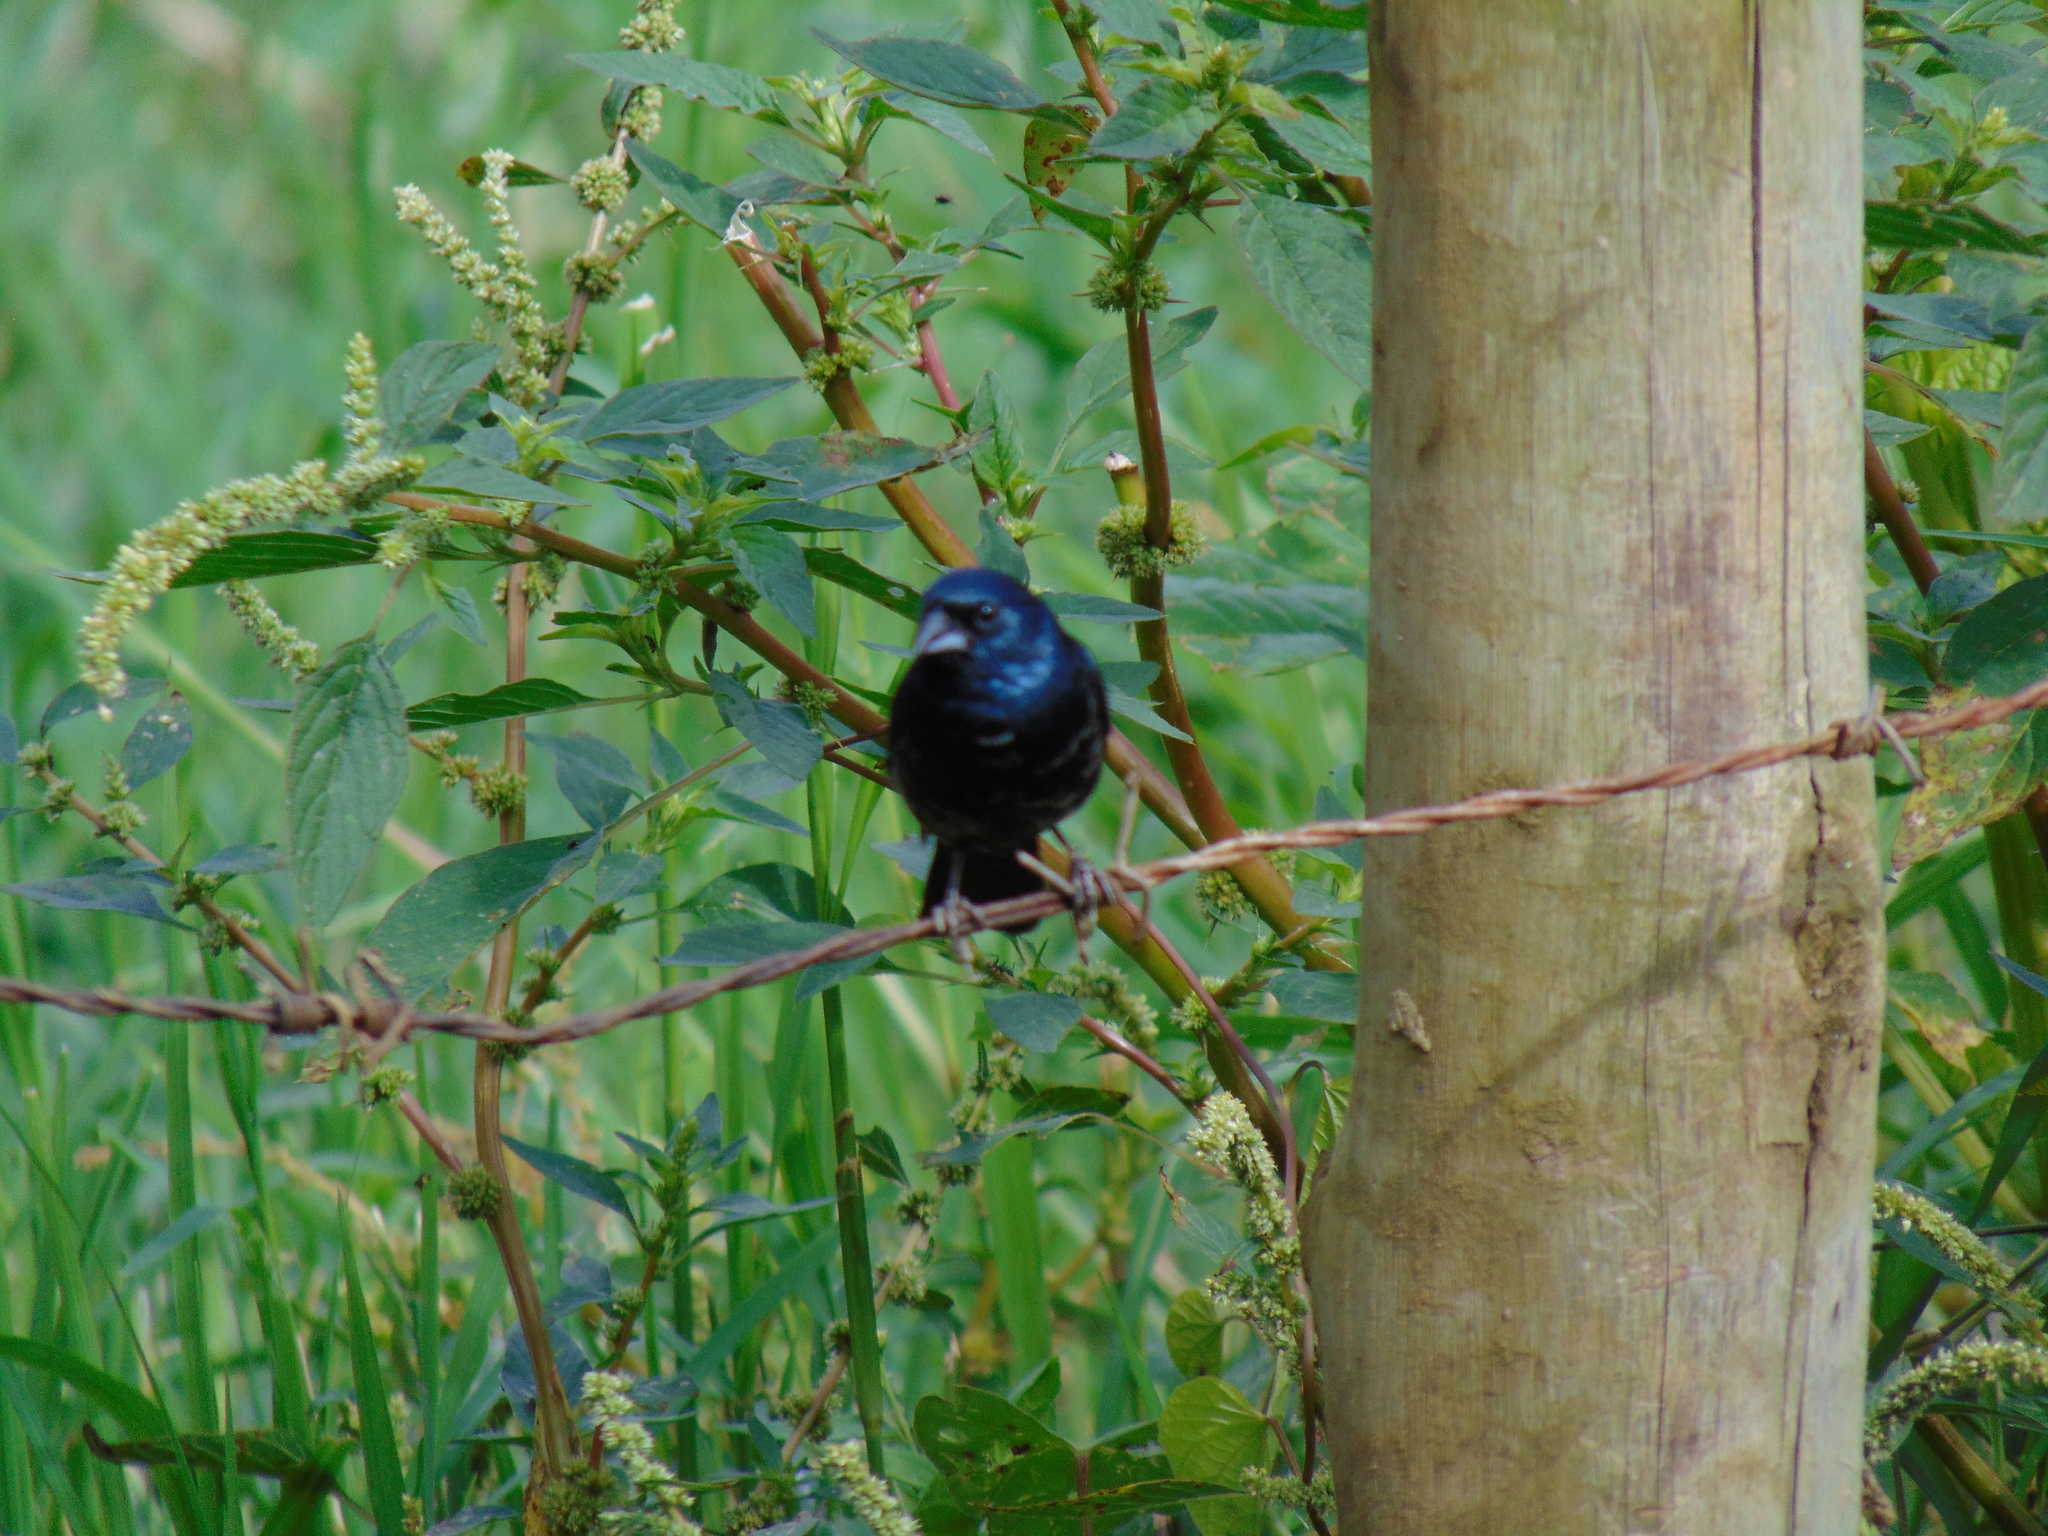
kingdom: Animalia
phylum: Chordata
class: Aves
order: Passeriformes
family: Thraupidae
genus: Volatinia
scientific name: Volatinia jacarina
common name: Blue-black grassquit
